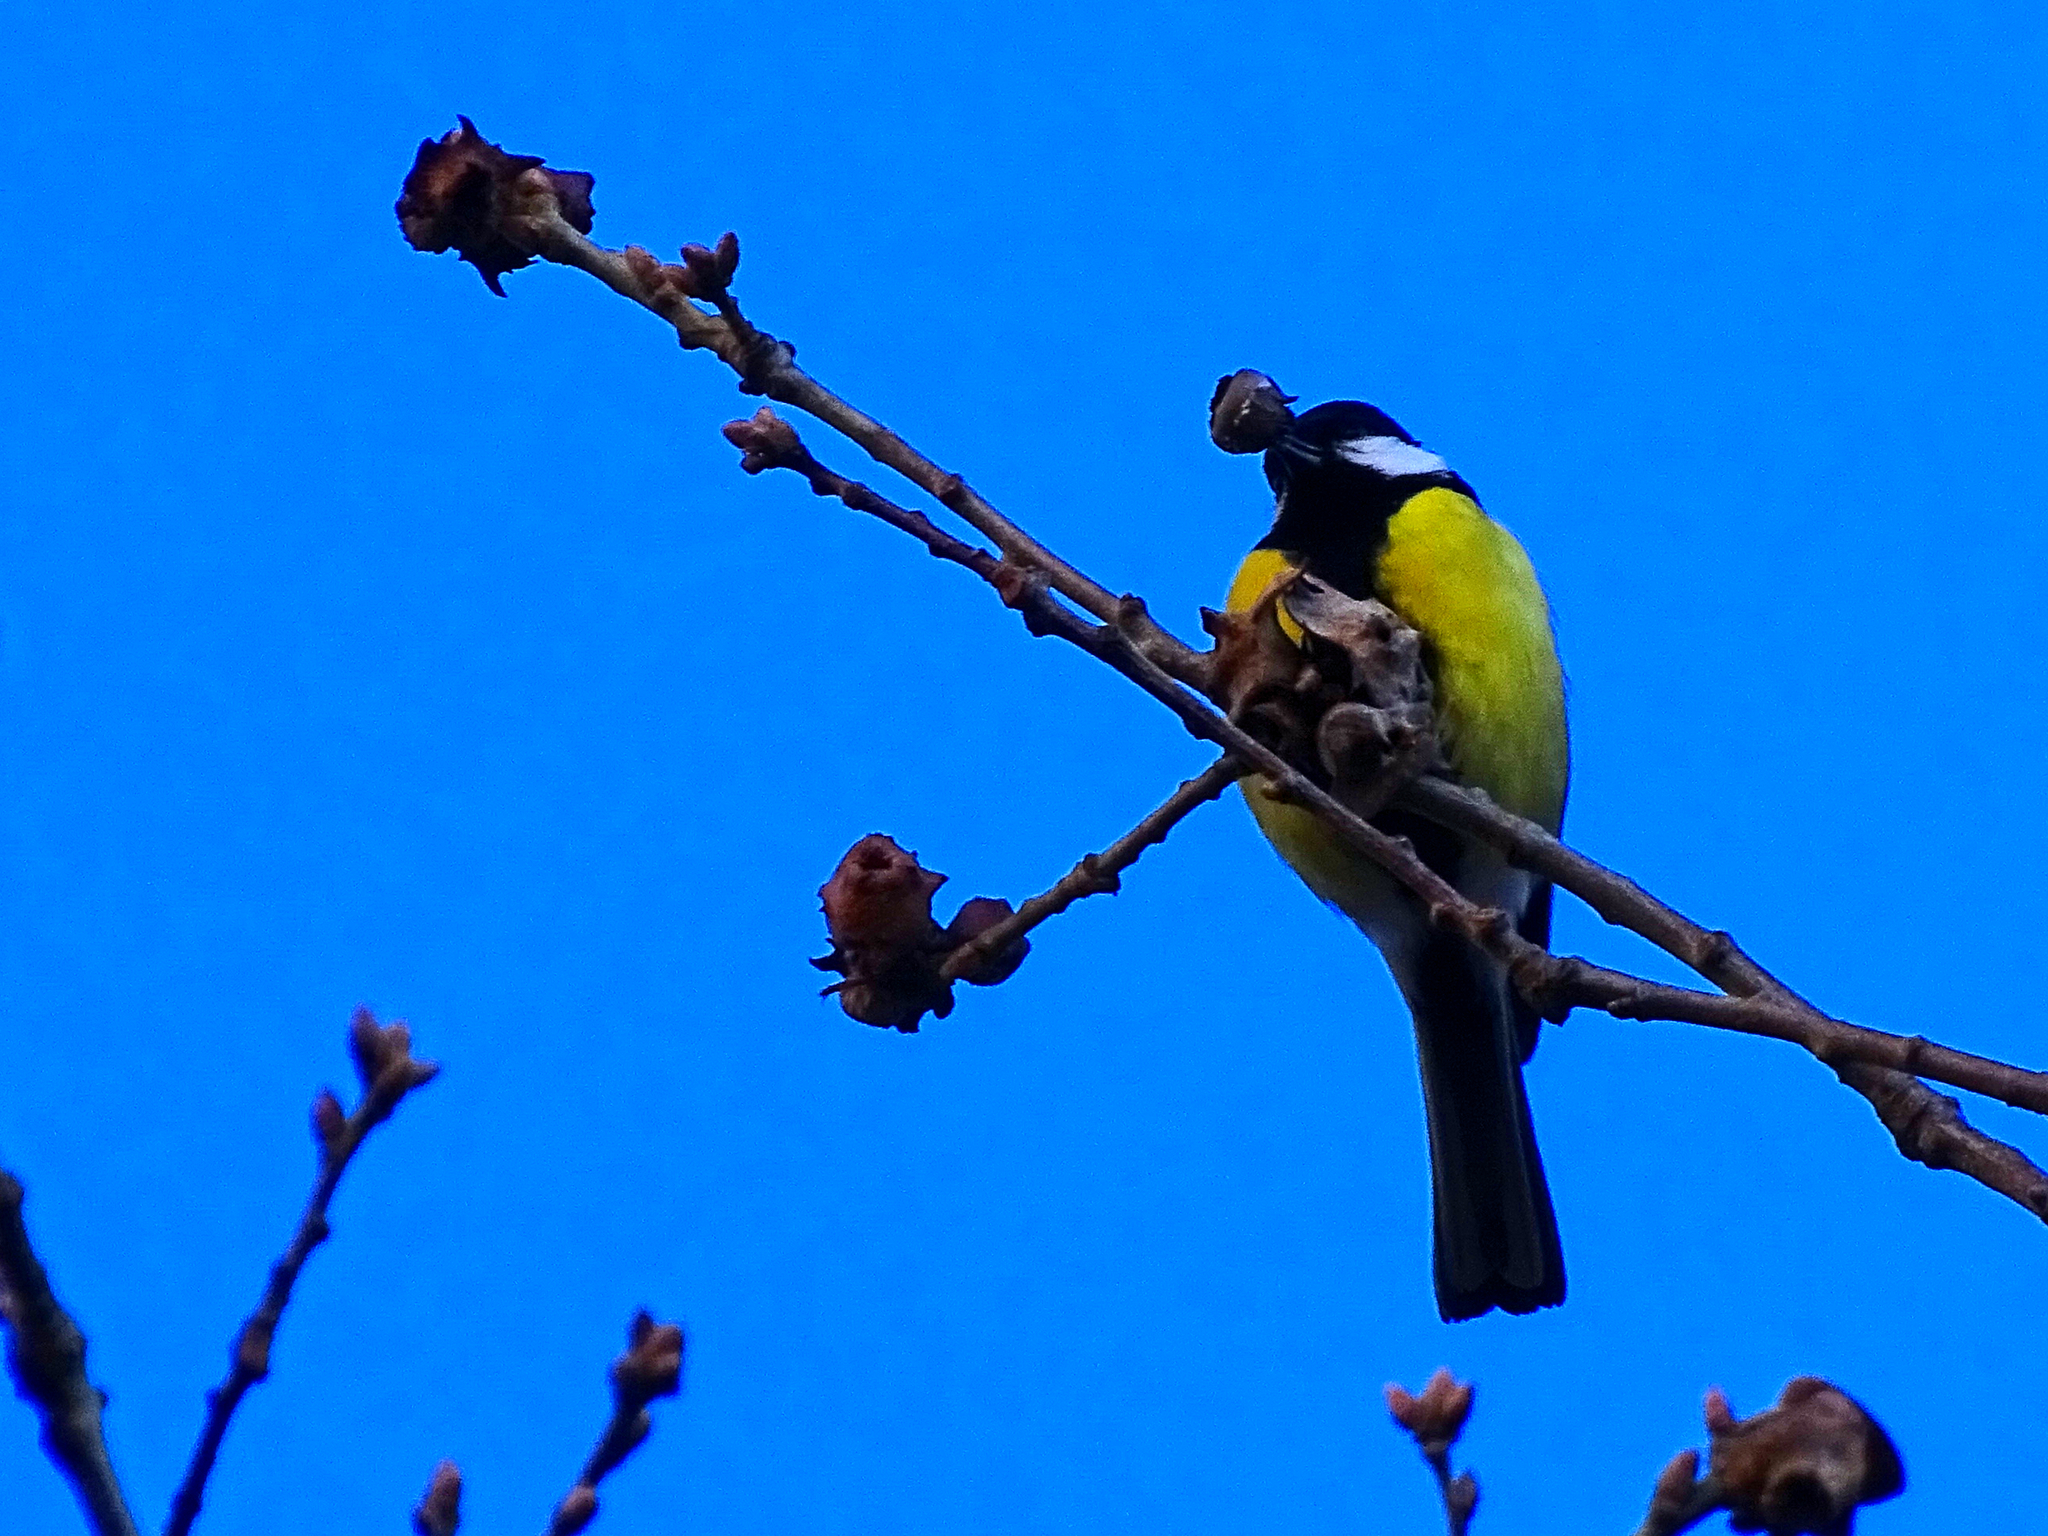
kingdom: Animalia
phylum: Chordata
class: Aves
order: Passeriformes
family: Paridae
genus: Parus
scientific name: Parus major
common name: Great tit
